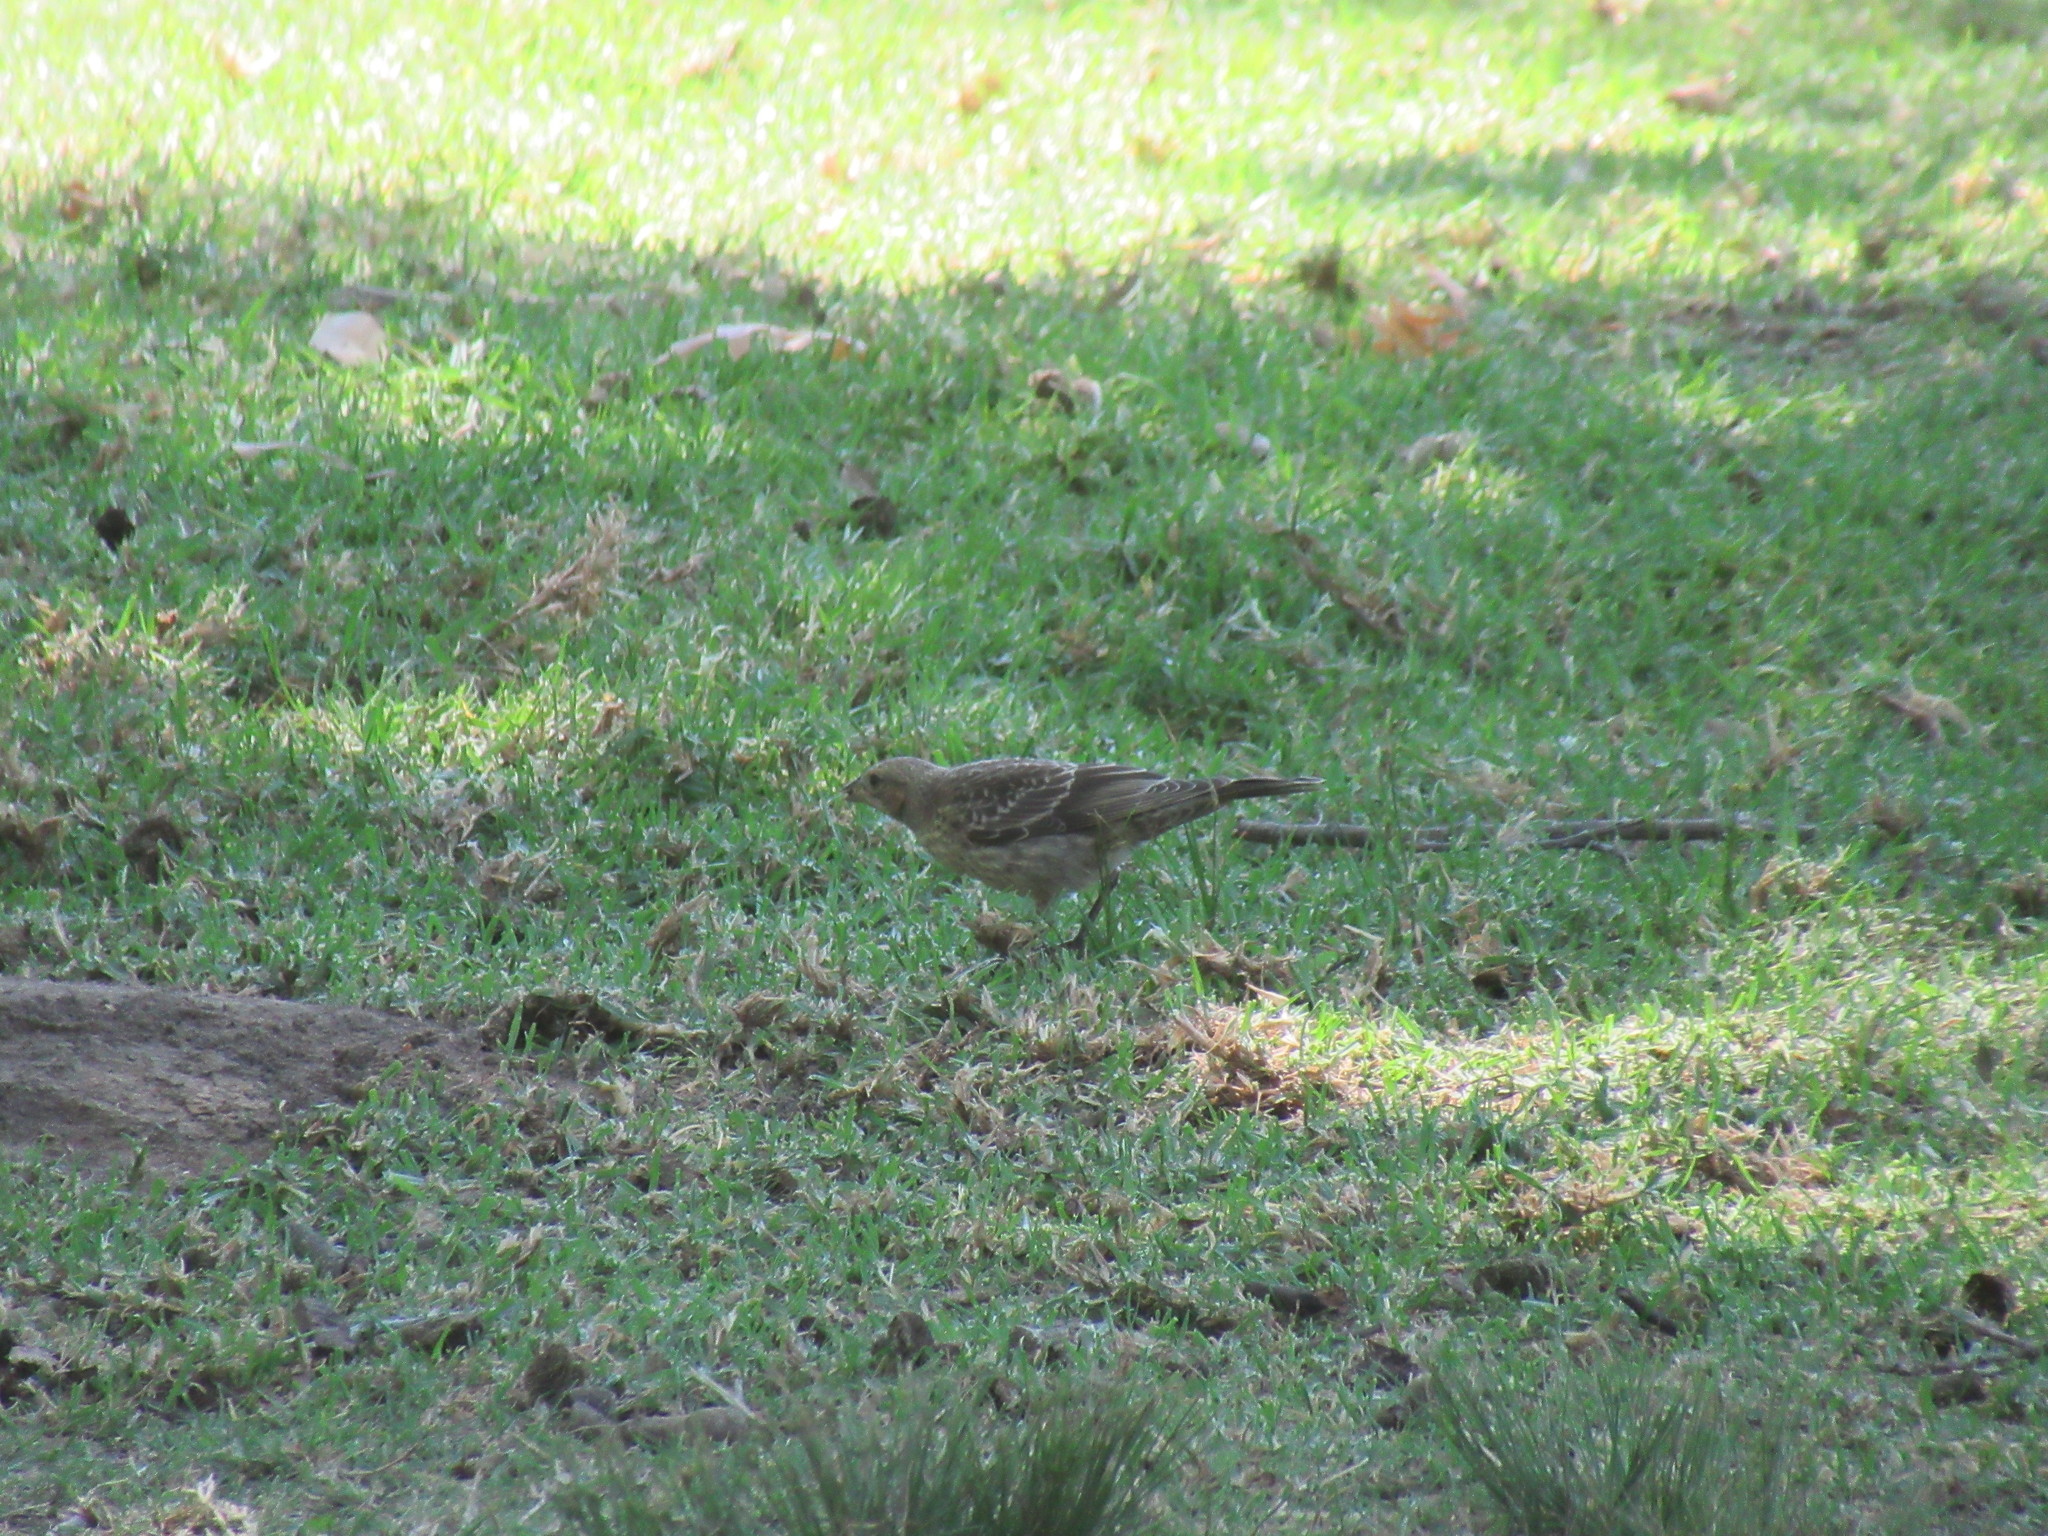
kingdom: Animalia
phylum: Chordata
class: Aves
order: Passeriformes
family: Icteridae
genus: Molothrus
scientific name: Molothrus ater
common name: Brown-headed cowbird
